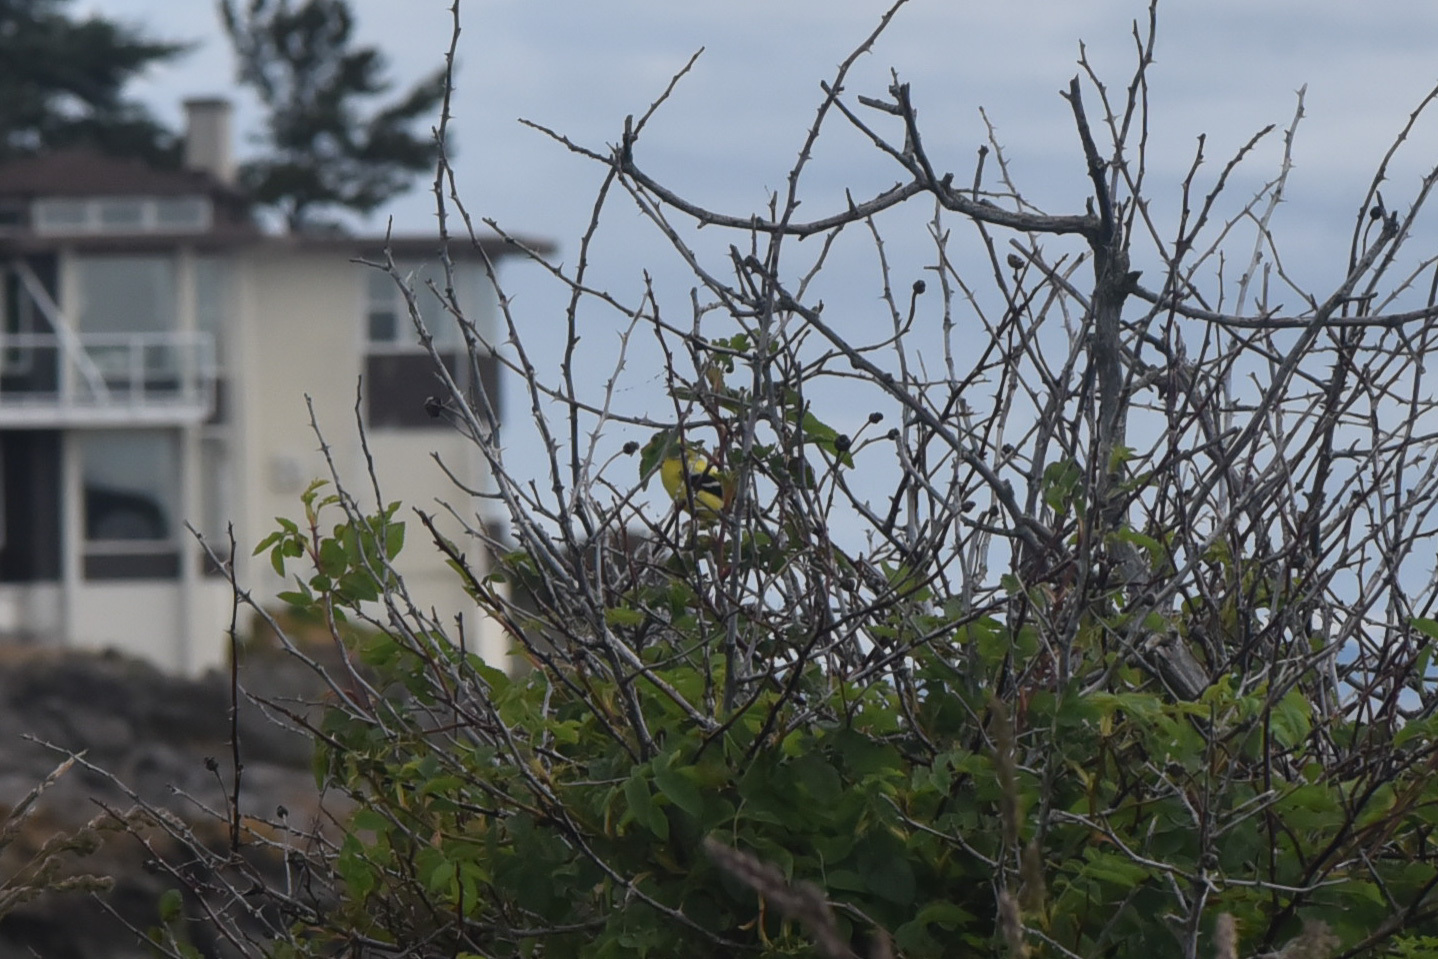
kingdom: Animalia
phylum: Chordata
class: Aves
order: Passeriformes
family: Fringillidae
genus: Spinus
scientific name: Spinus tristis
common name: American goldfinch
